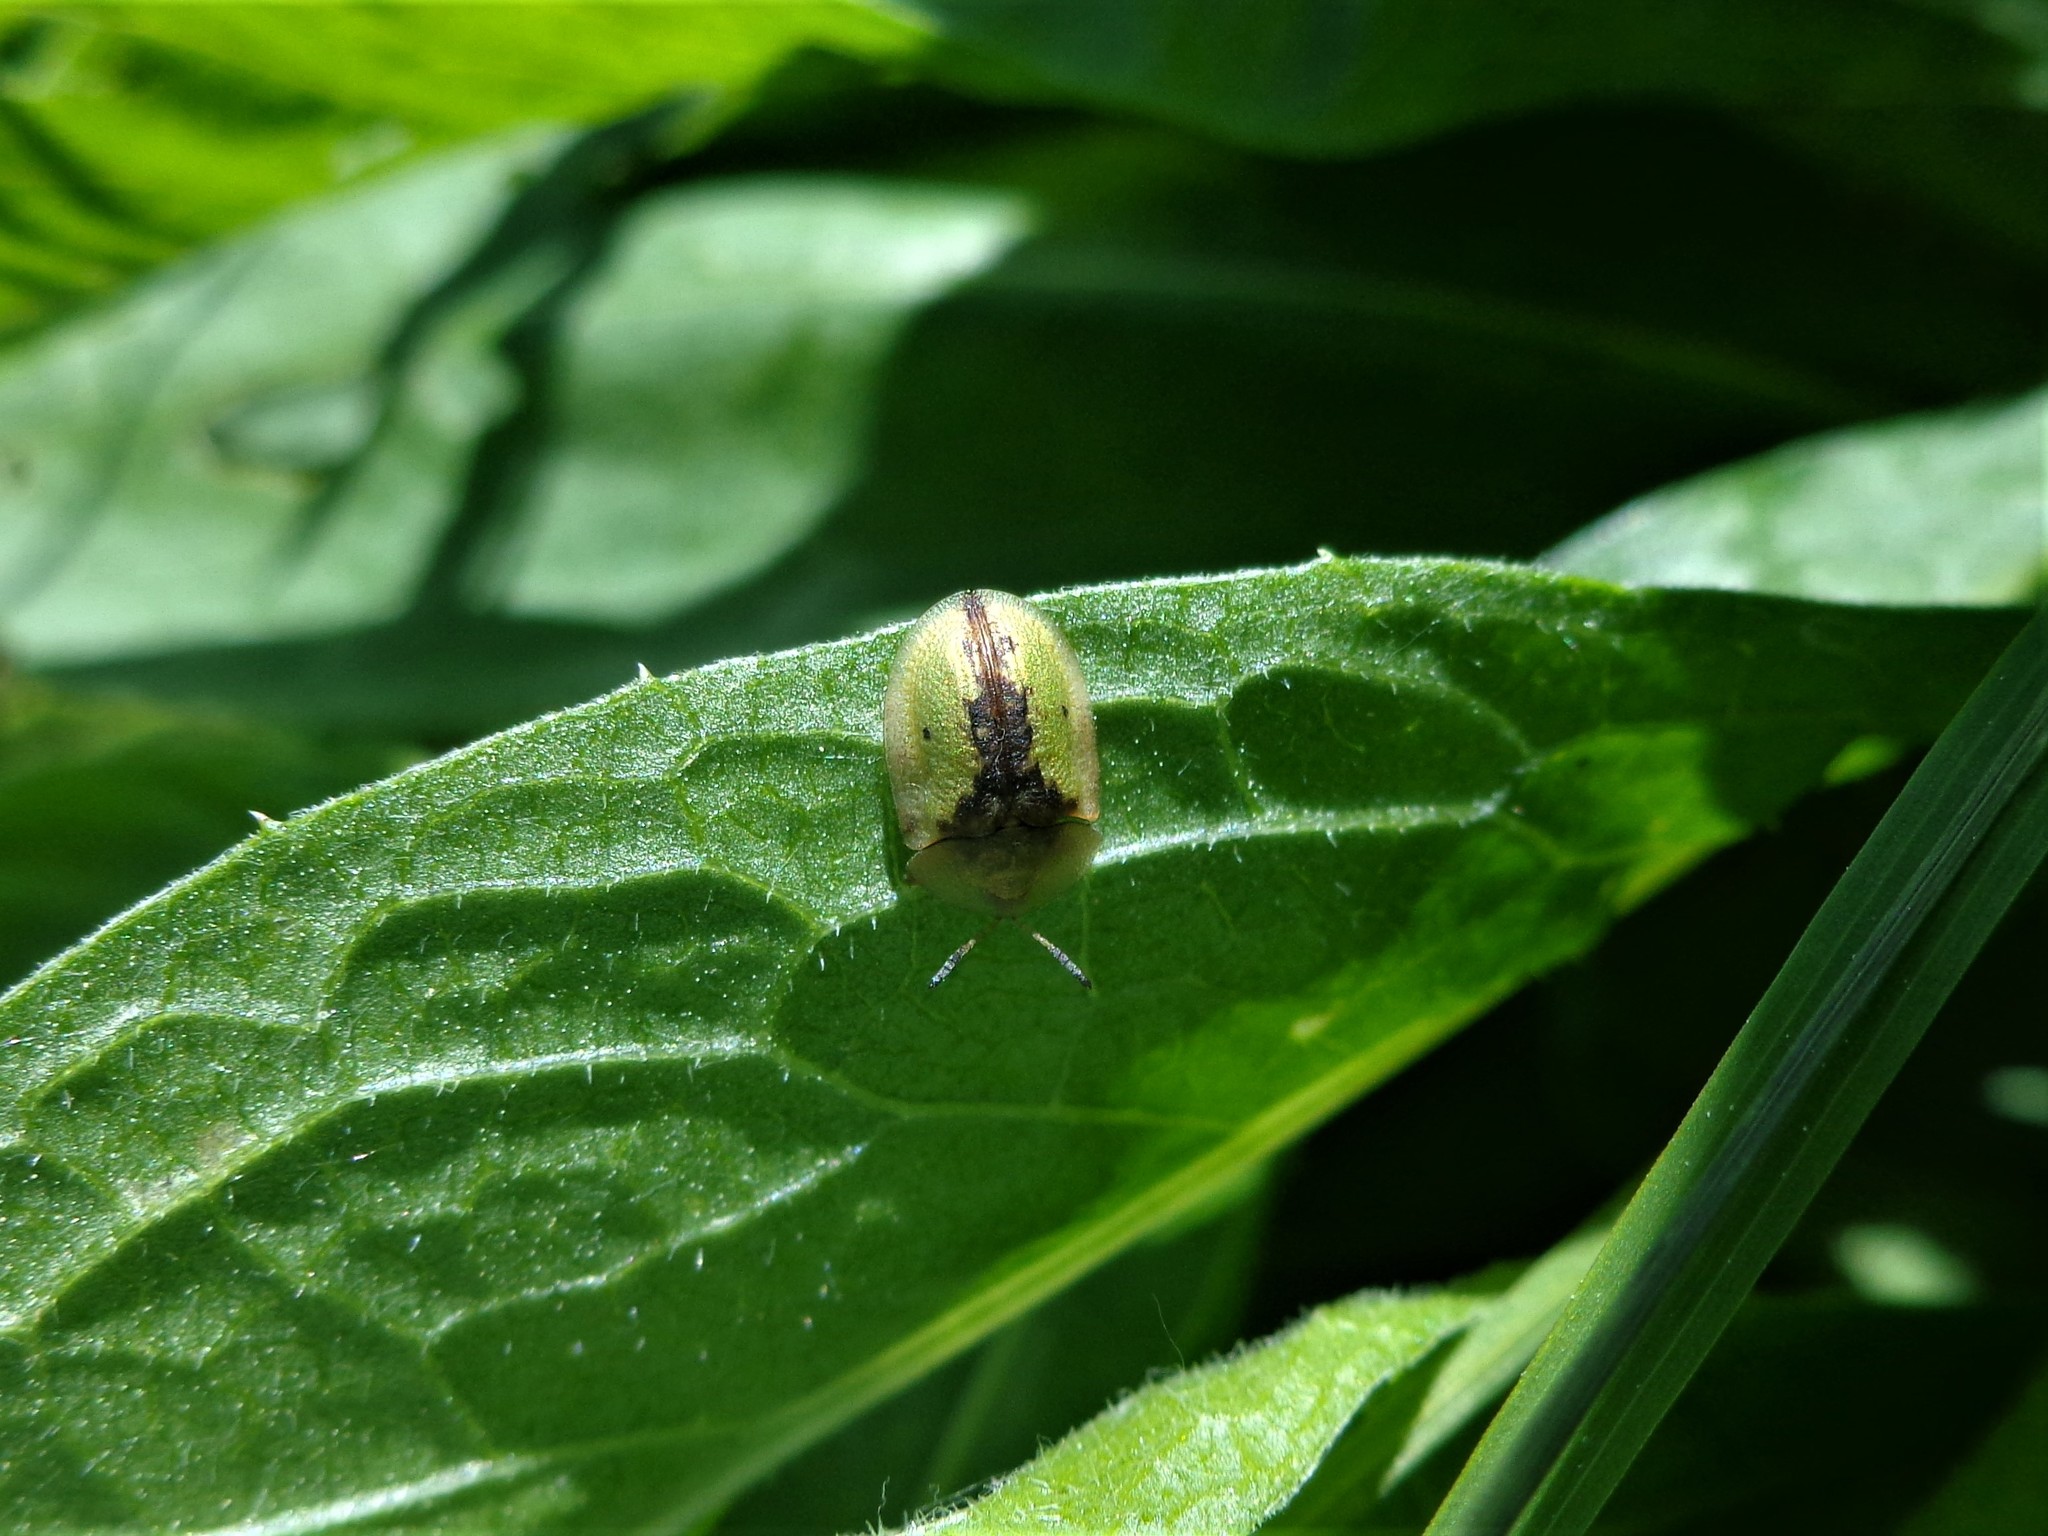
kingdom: Animalia
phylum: Arthropoda
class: Insecta
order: Coleoptera
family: Chrysomelidae
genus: Cassida
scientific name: Cassida vibex
